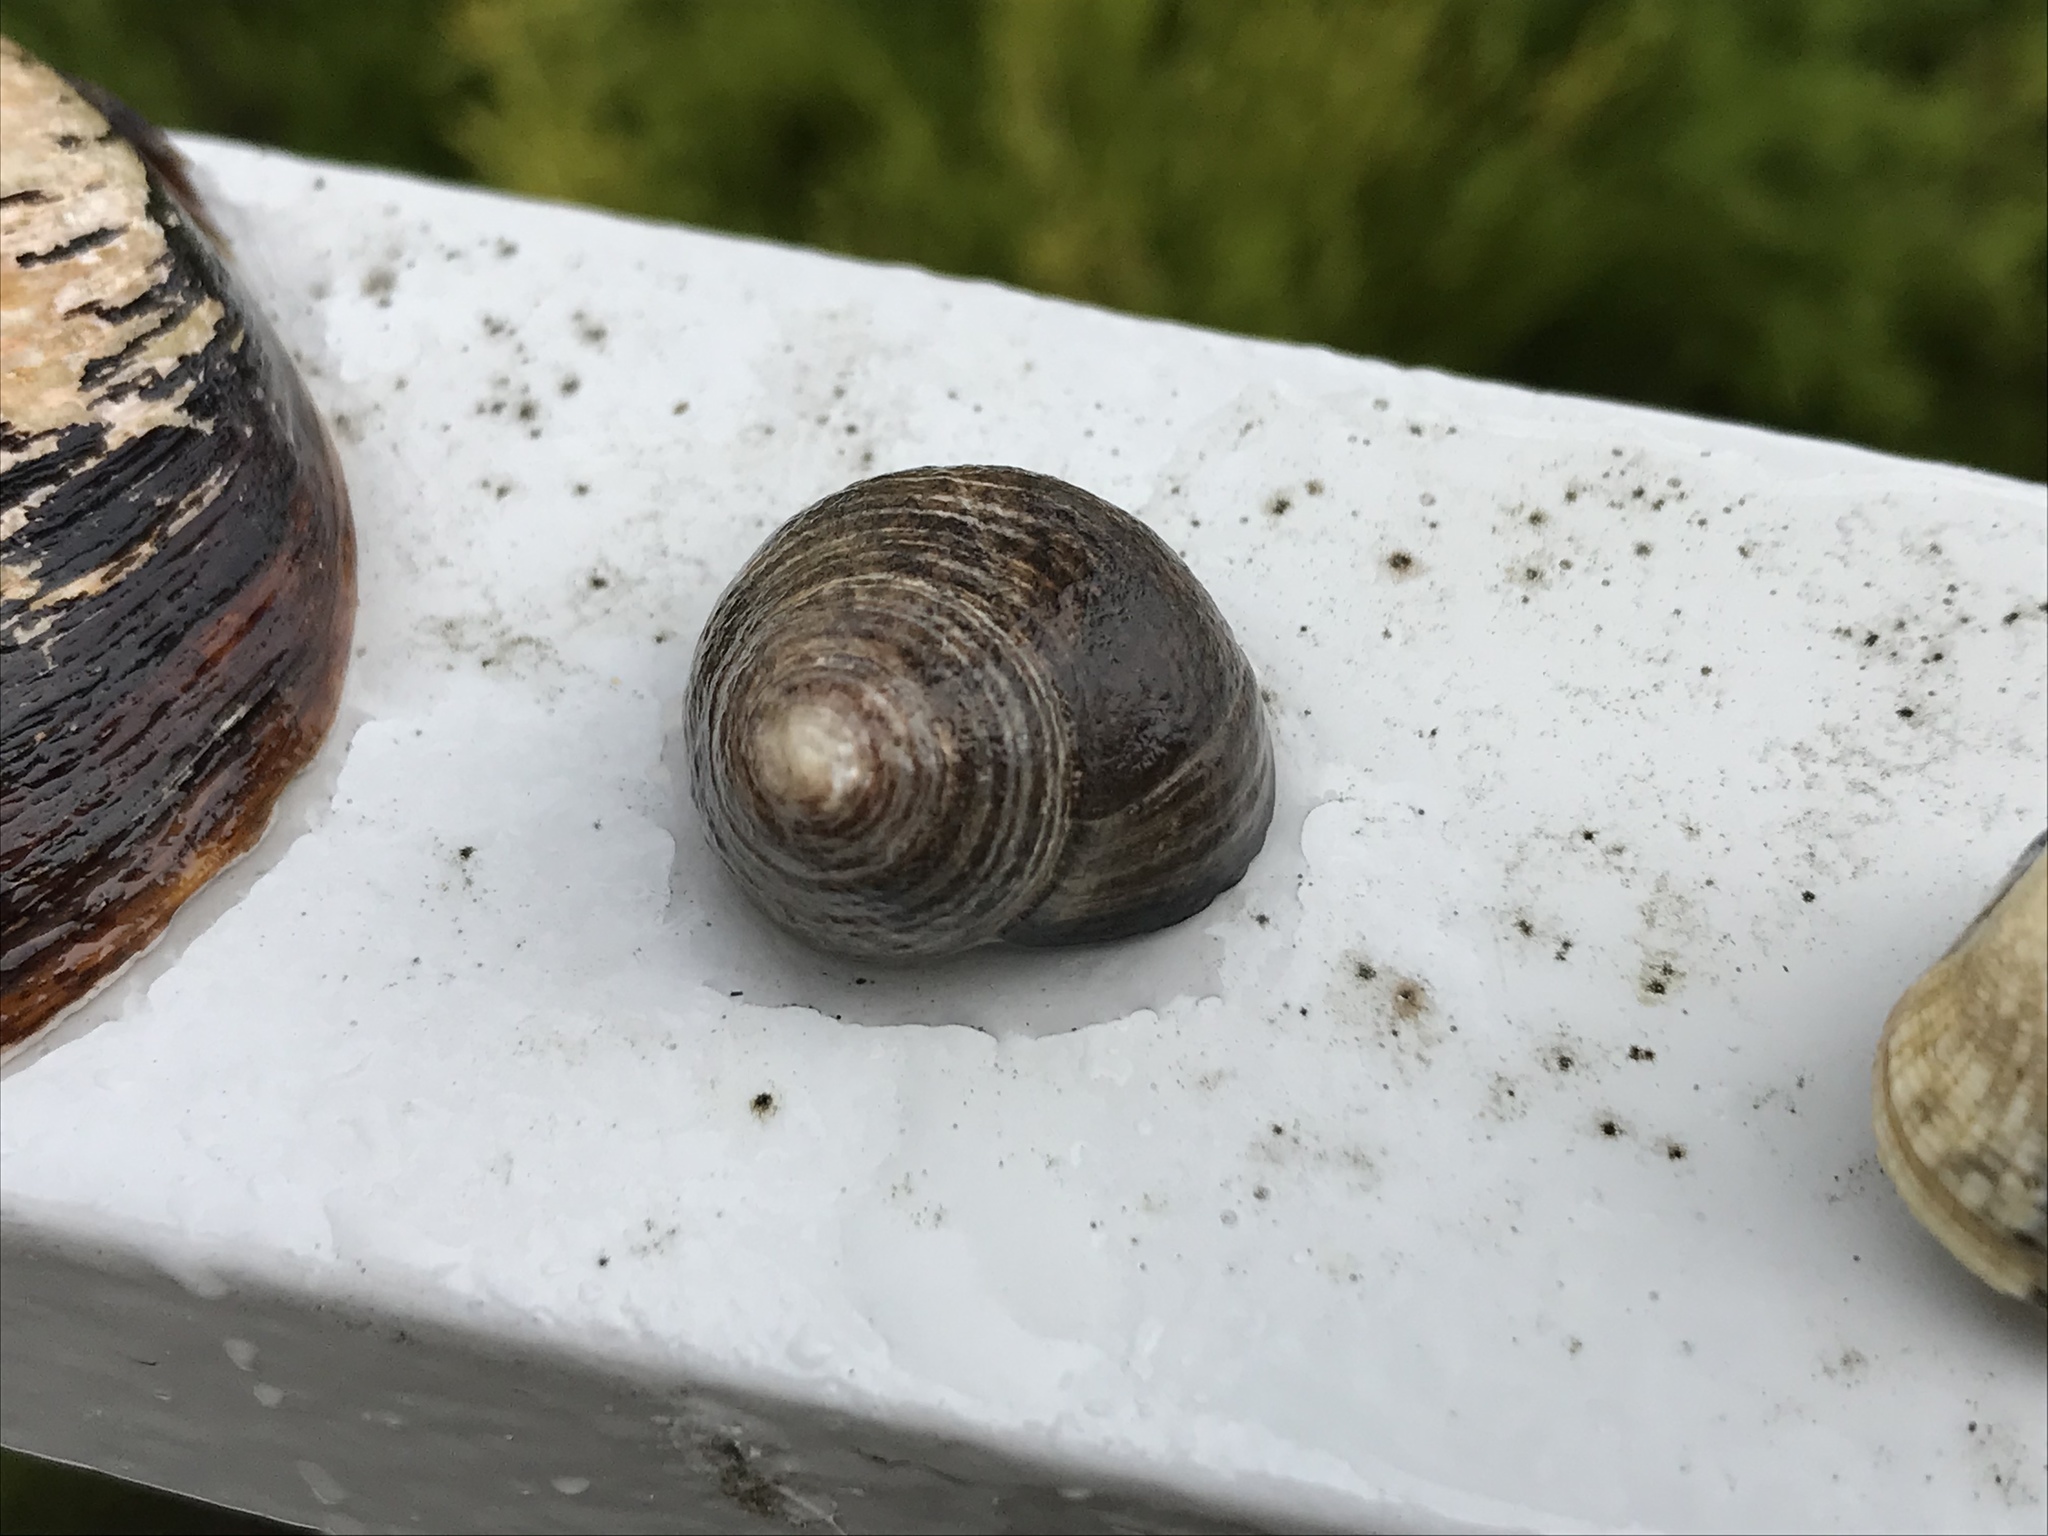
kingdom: Animalia
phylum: Mollusca
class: Gastropoda
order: Littorinimorpha
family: Littorinidae
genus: Littorina
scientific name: Littorina littorea
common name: Common periwinkle
